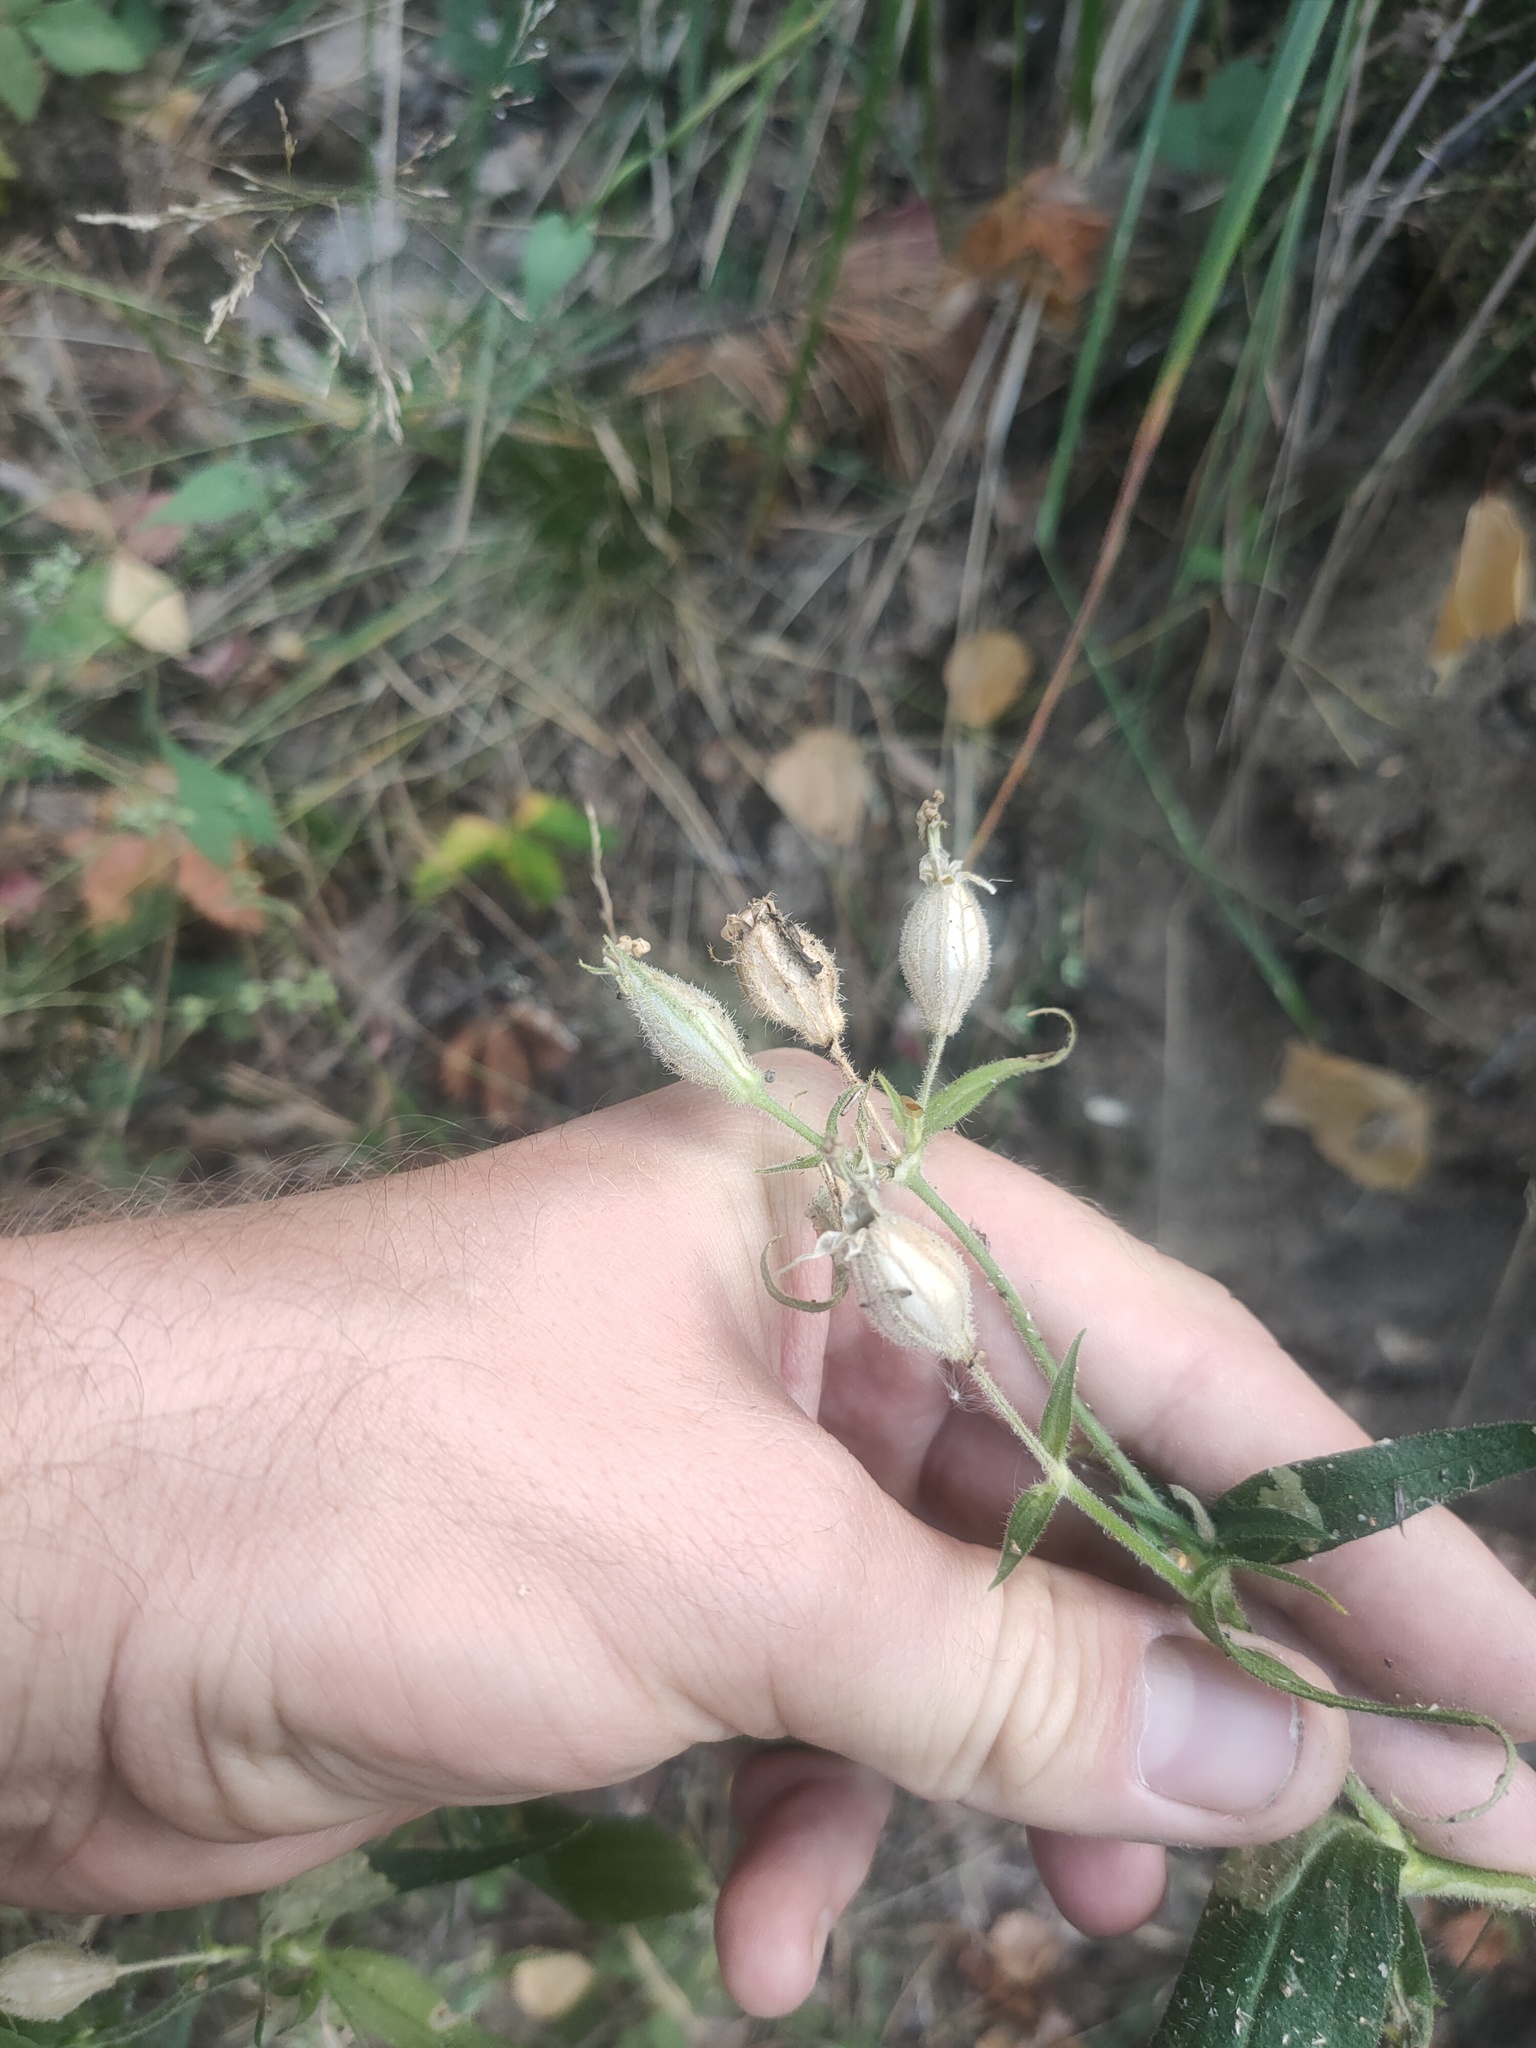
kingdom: Plantae
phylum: Tracheophyta
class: Magnoliopsida
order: Caryophyllales
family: Caryophyllaceae
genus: Silene
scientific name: Silene noctiflora
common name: Night-flowering catchfly
